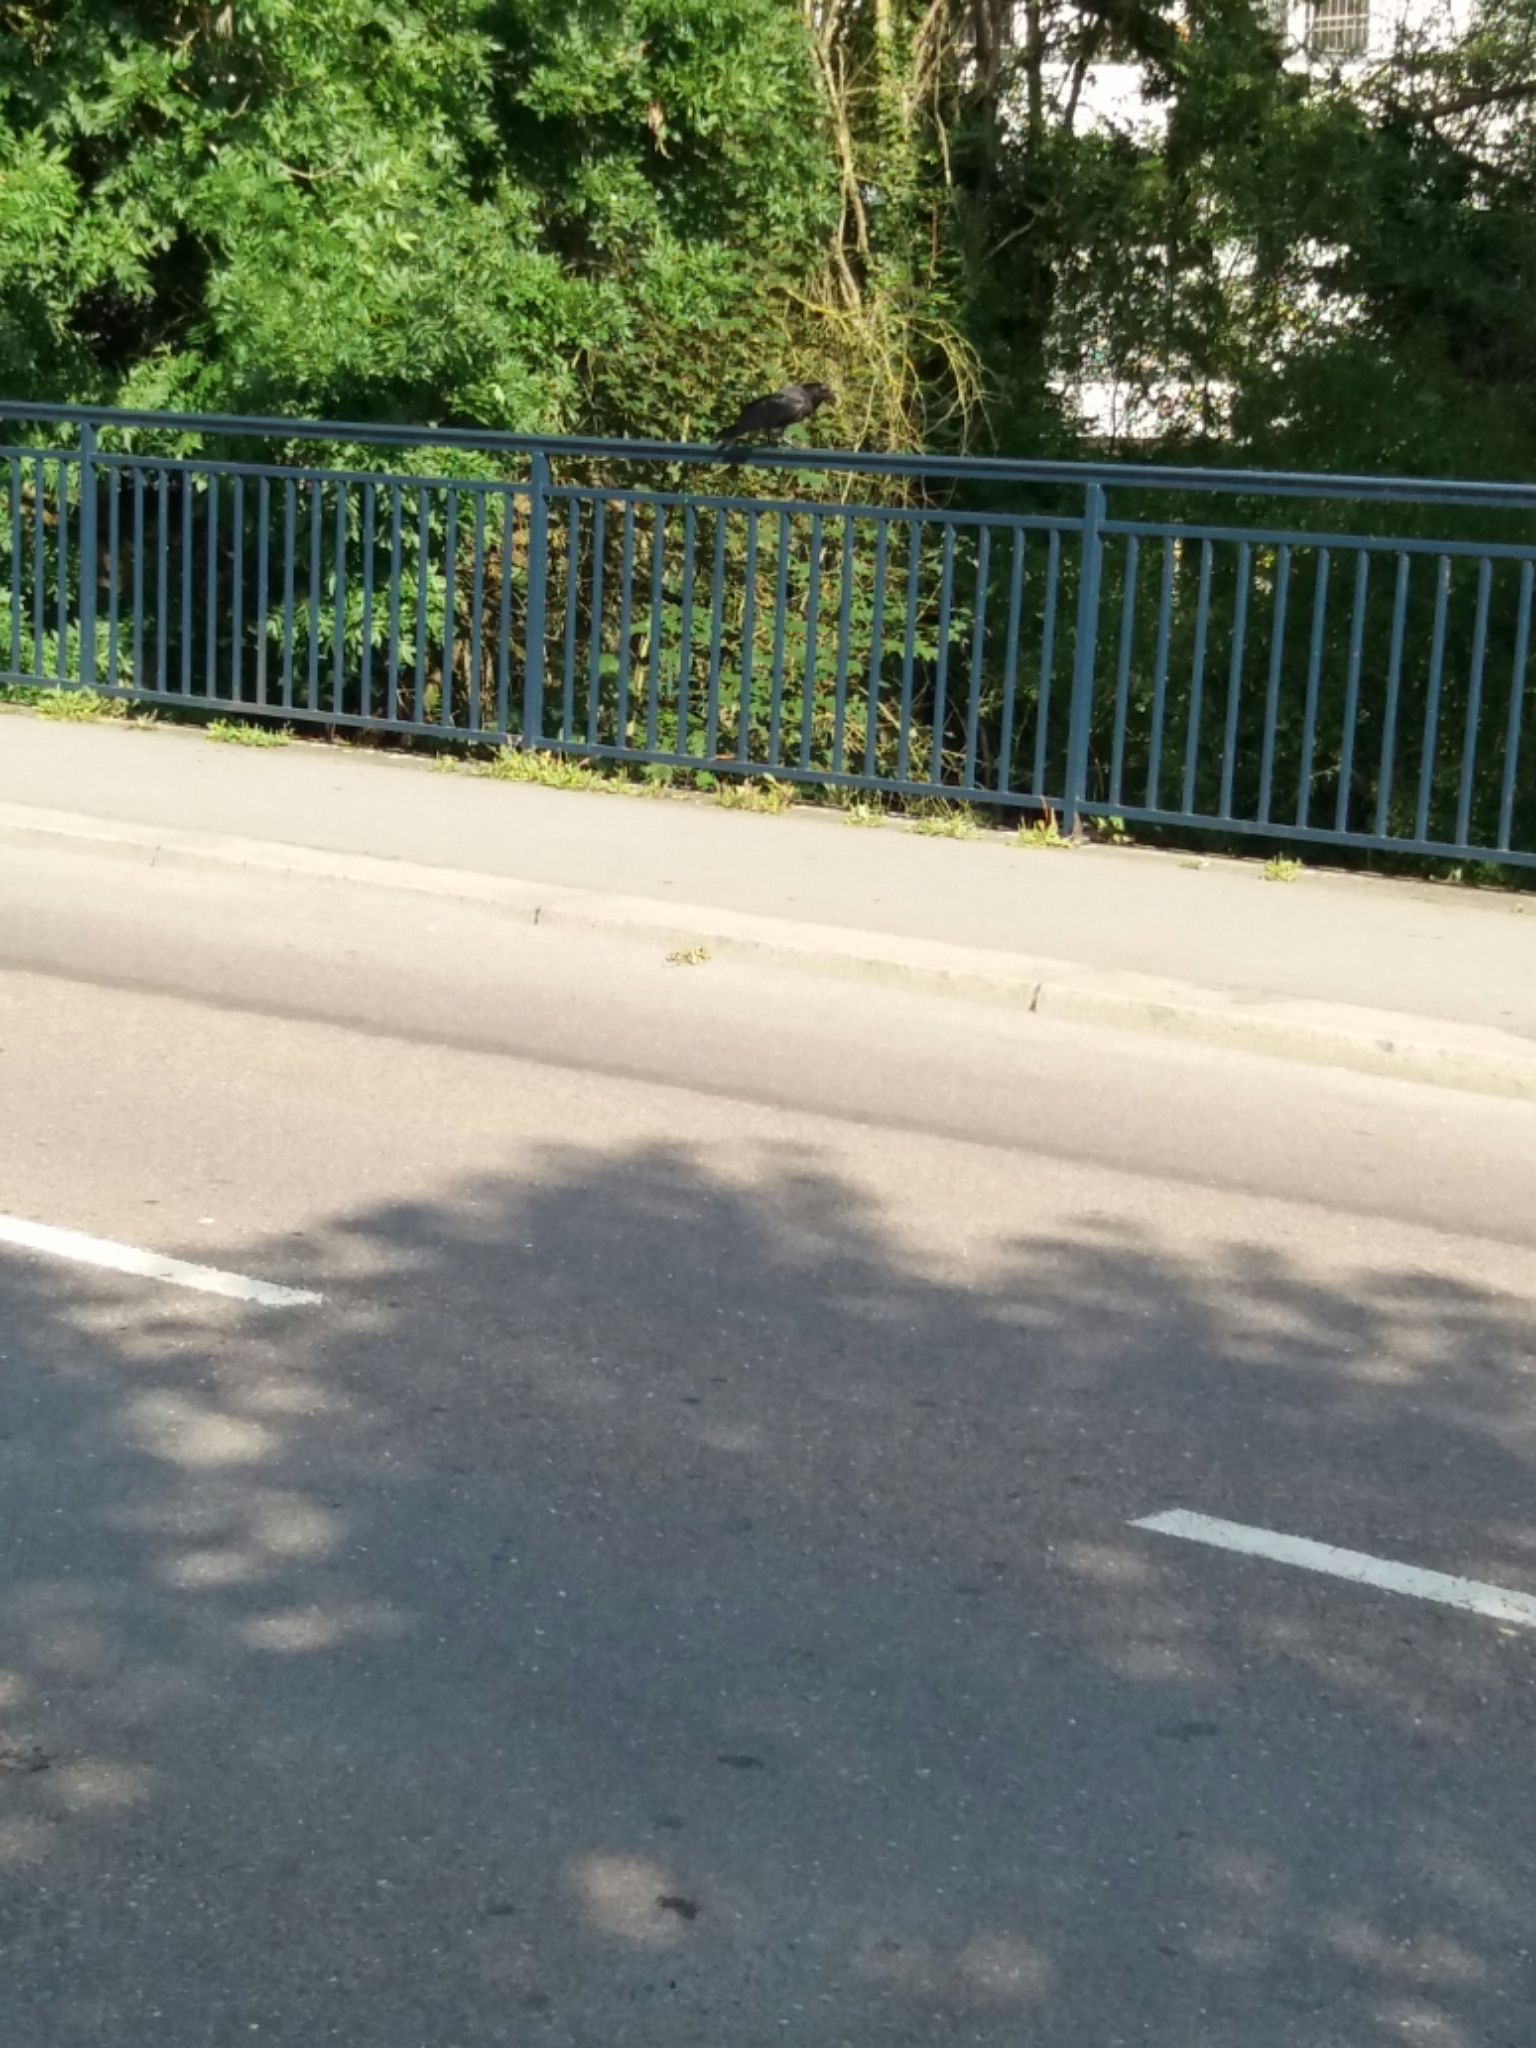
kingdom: Animalia
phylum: Chordata
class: Aves
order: Passeriformes
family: Corvidae
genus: Corvus
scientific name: Corvus corone
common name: Carrion crow
